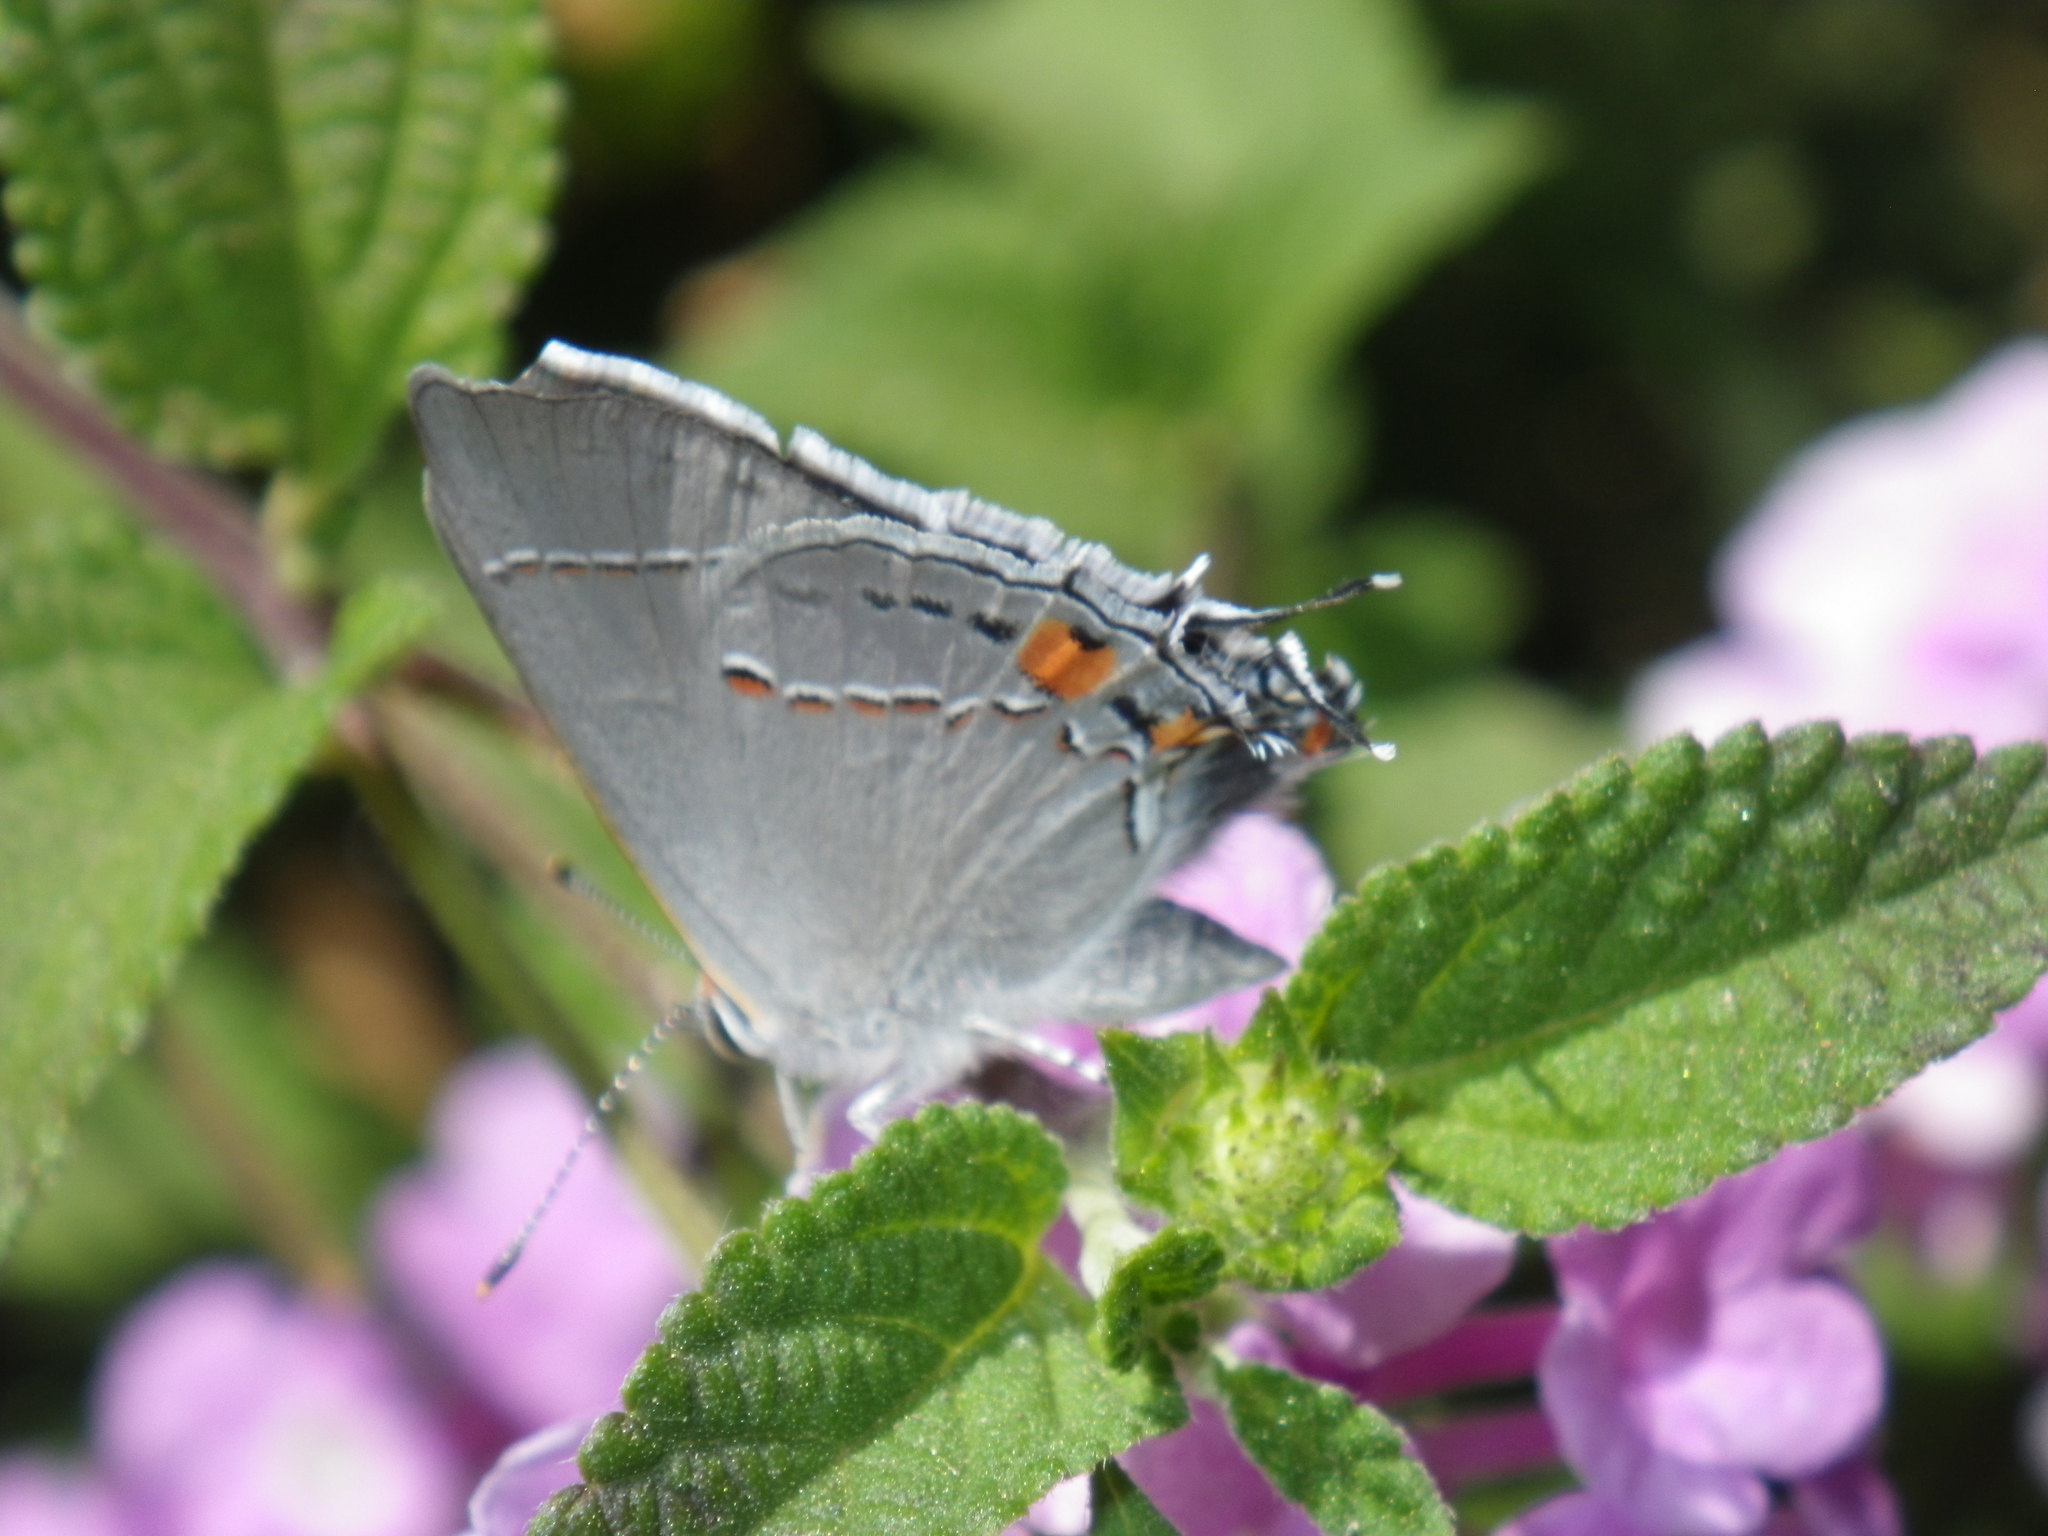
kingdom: Animalia
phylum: Arthropoda
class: Insecta
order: Lepidoptera
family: Lycaenidae
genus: Strymon
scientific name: Strymon melinus
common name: Gray hairstreak
